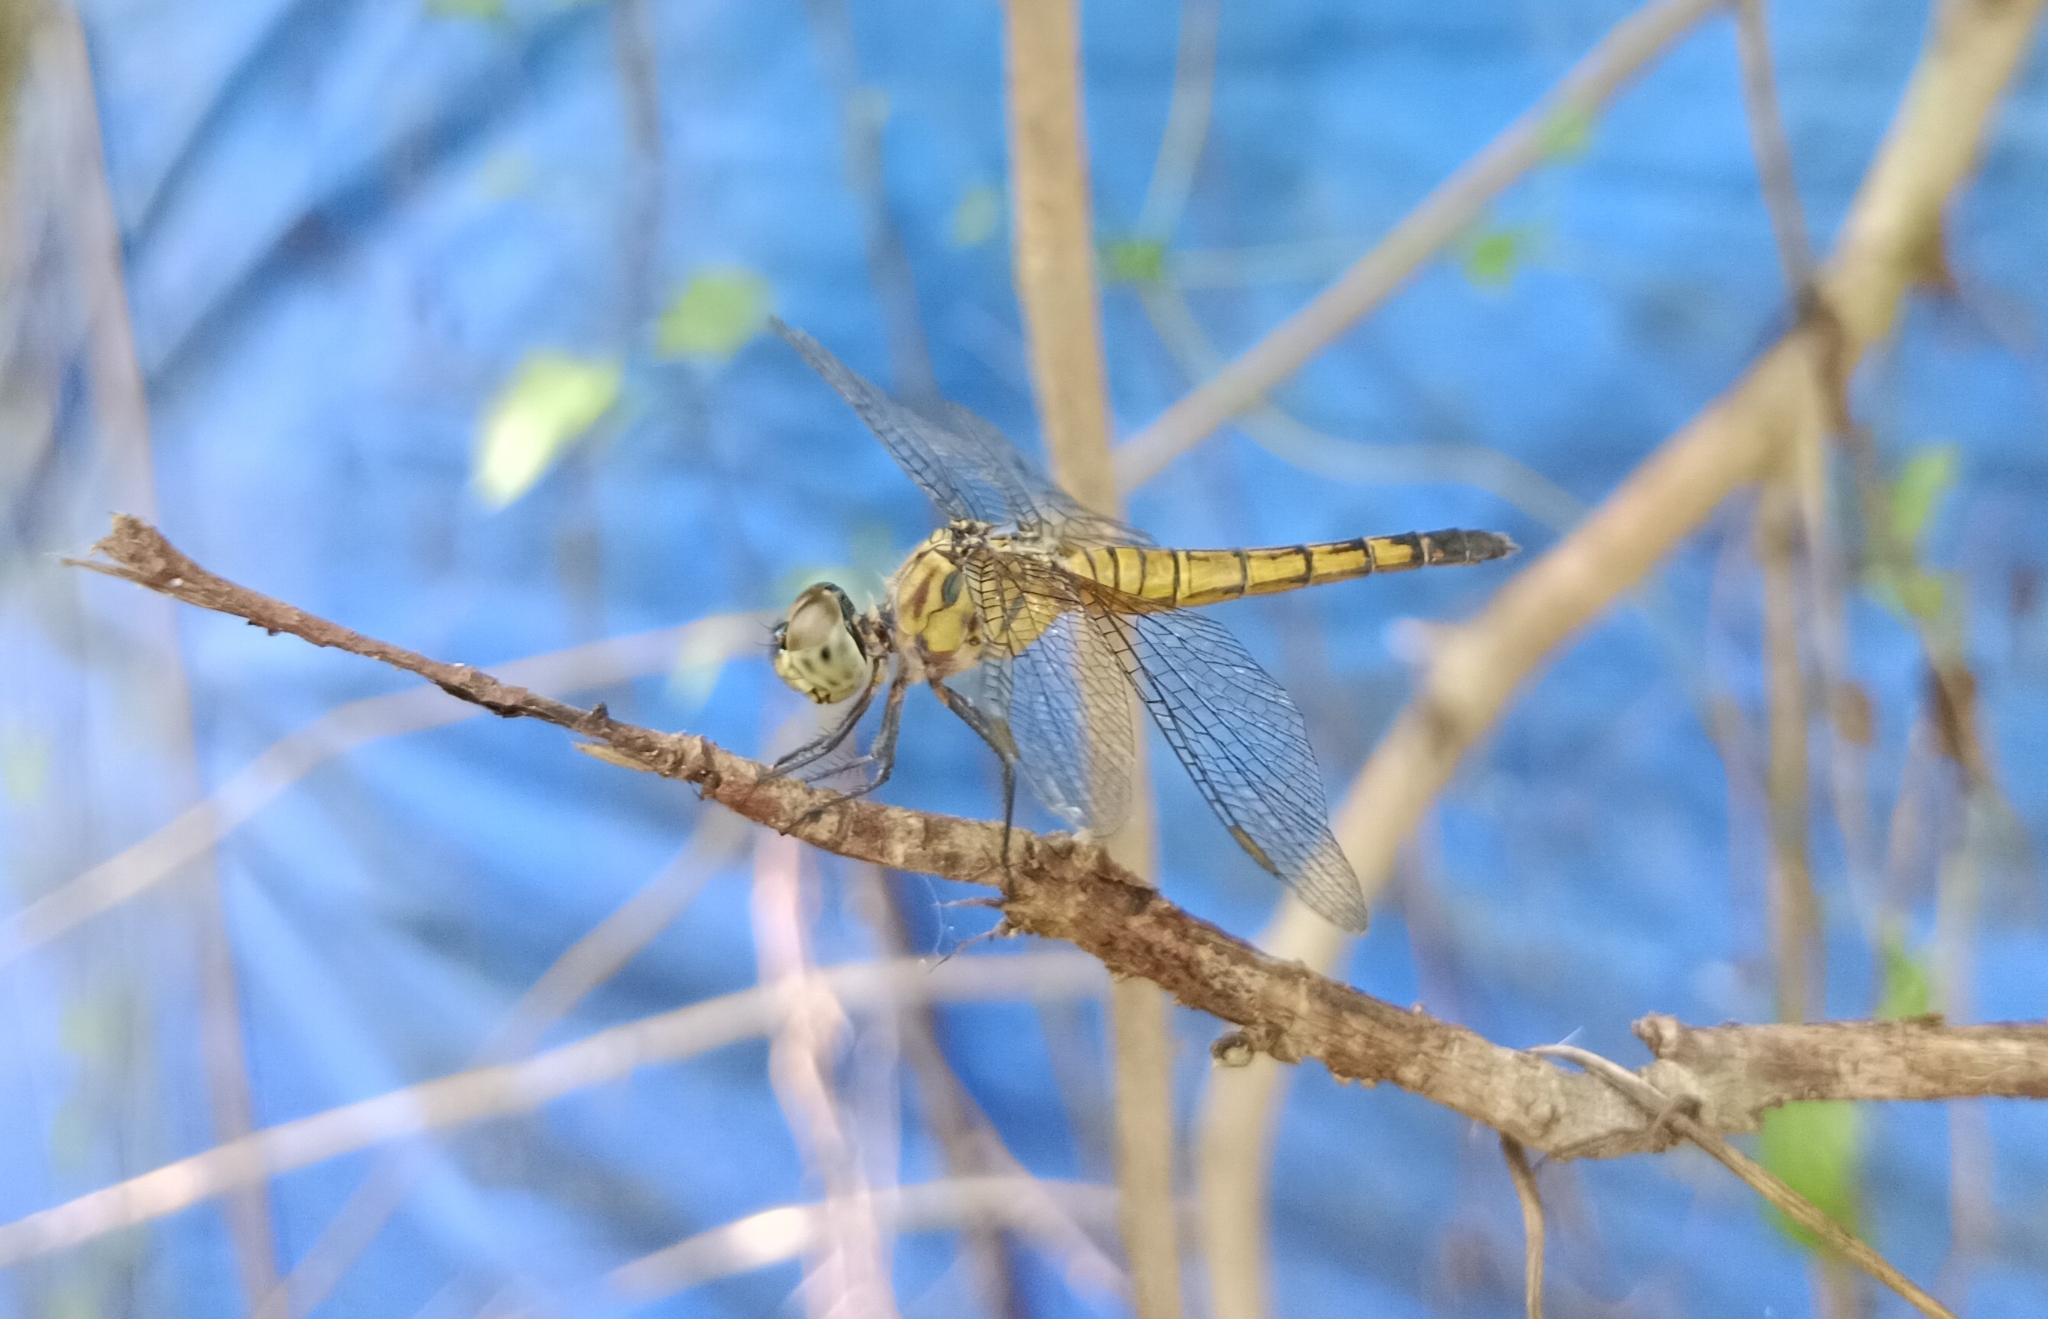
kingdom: Animalia
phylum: Arthropoda
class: Insecta
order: Odonata
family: Libellulidae
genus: Brachydiplax
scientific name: Brachydiplax chalybea
